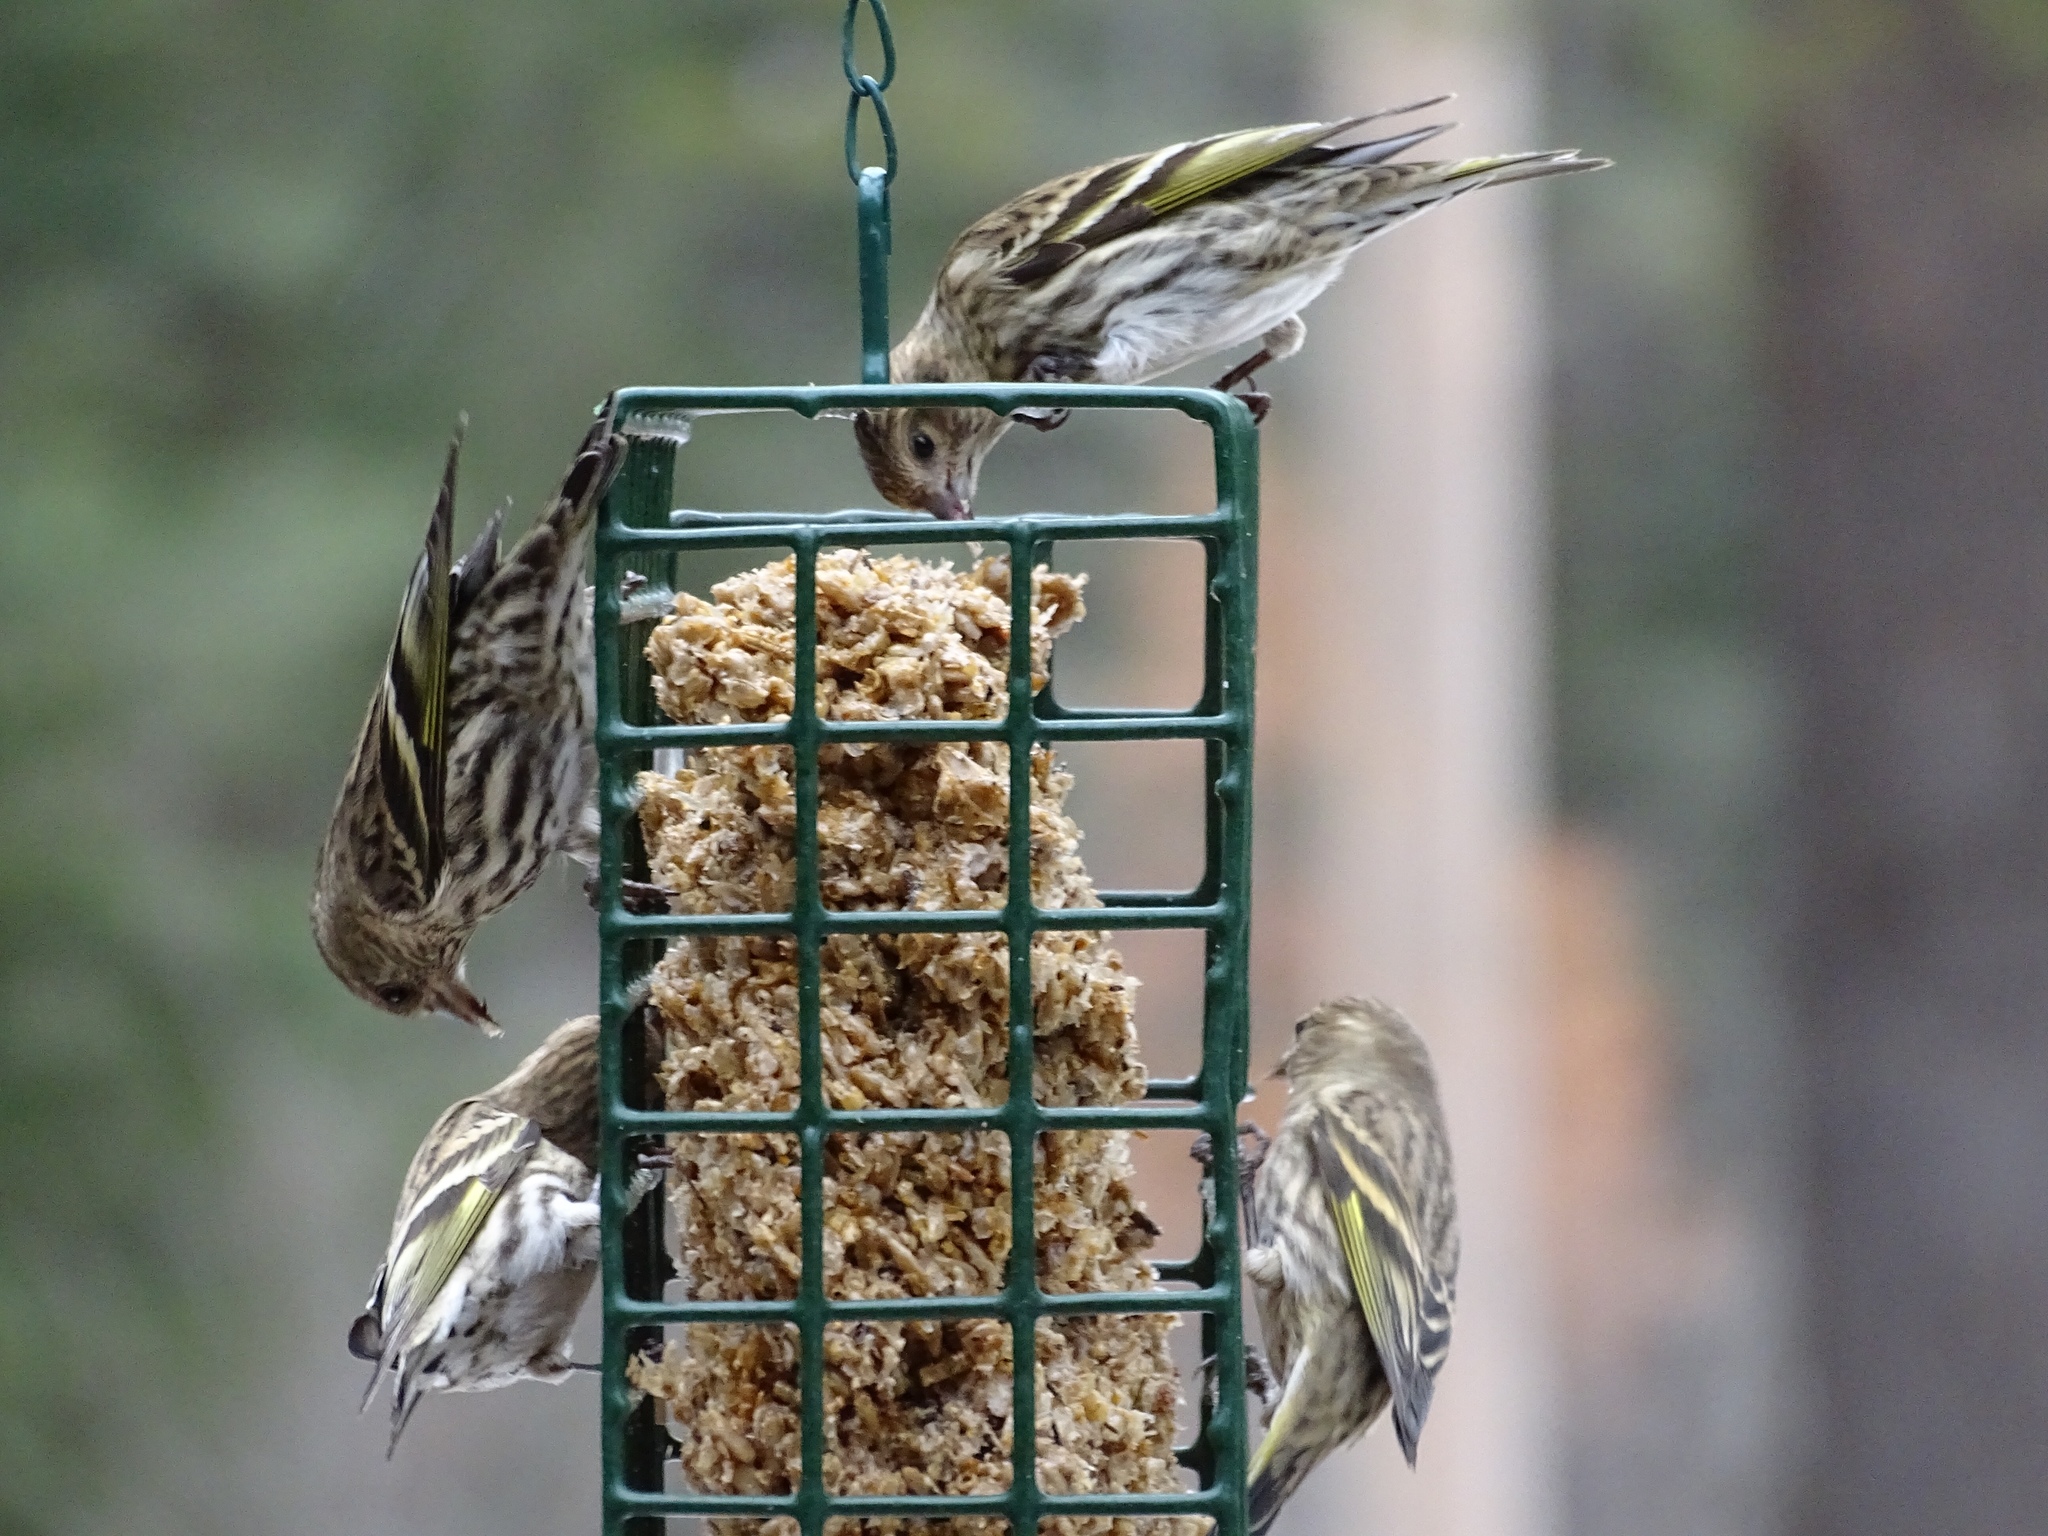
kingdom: Animalia
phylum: Chordata
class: Aves
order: Passeriformes
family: Fringillidae
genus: Spinus
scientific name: Spinus pinus
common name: Pine siskin
